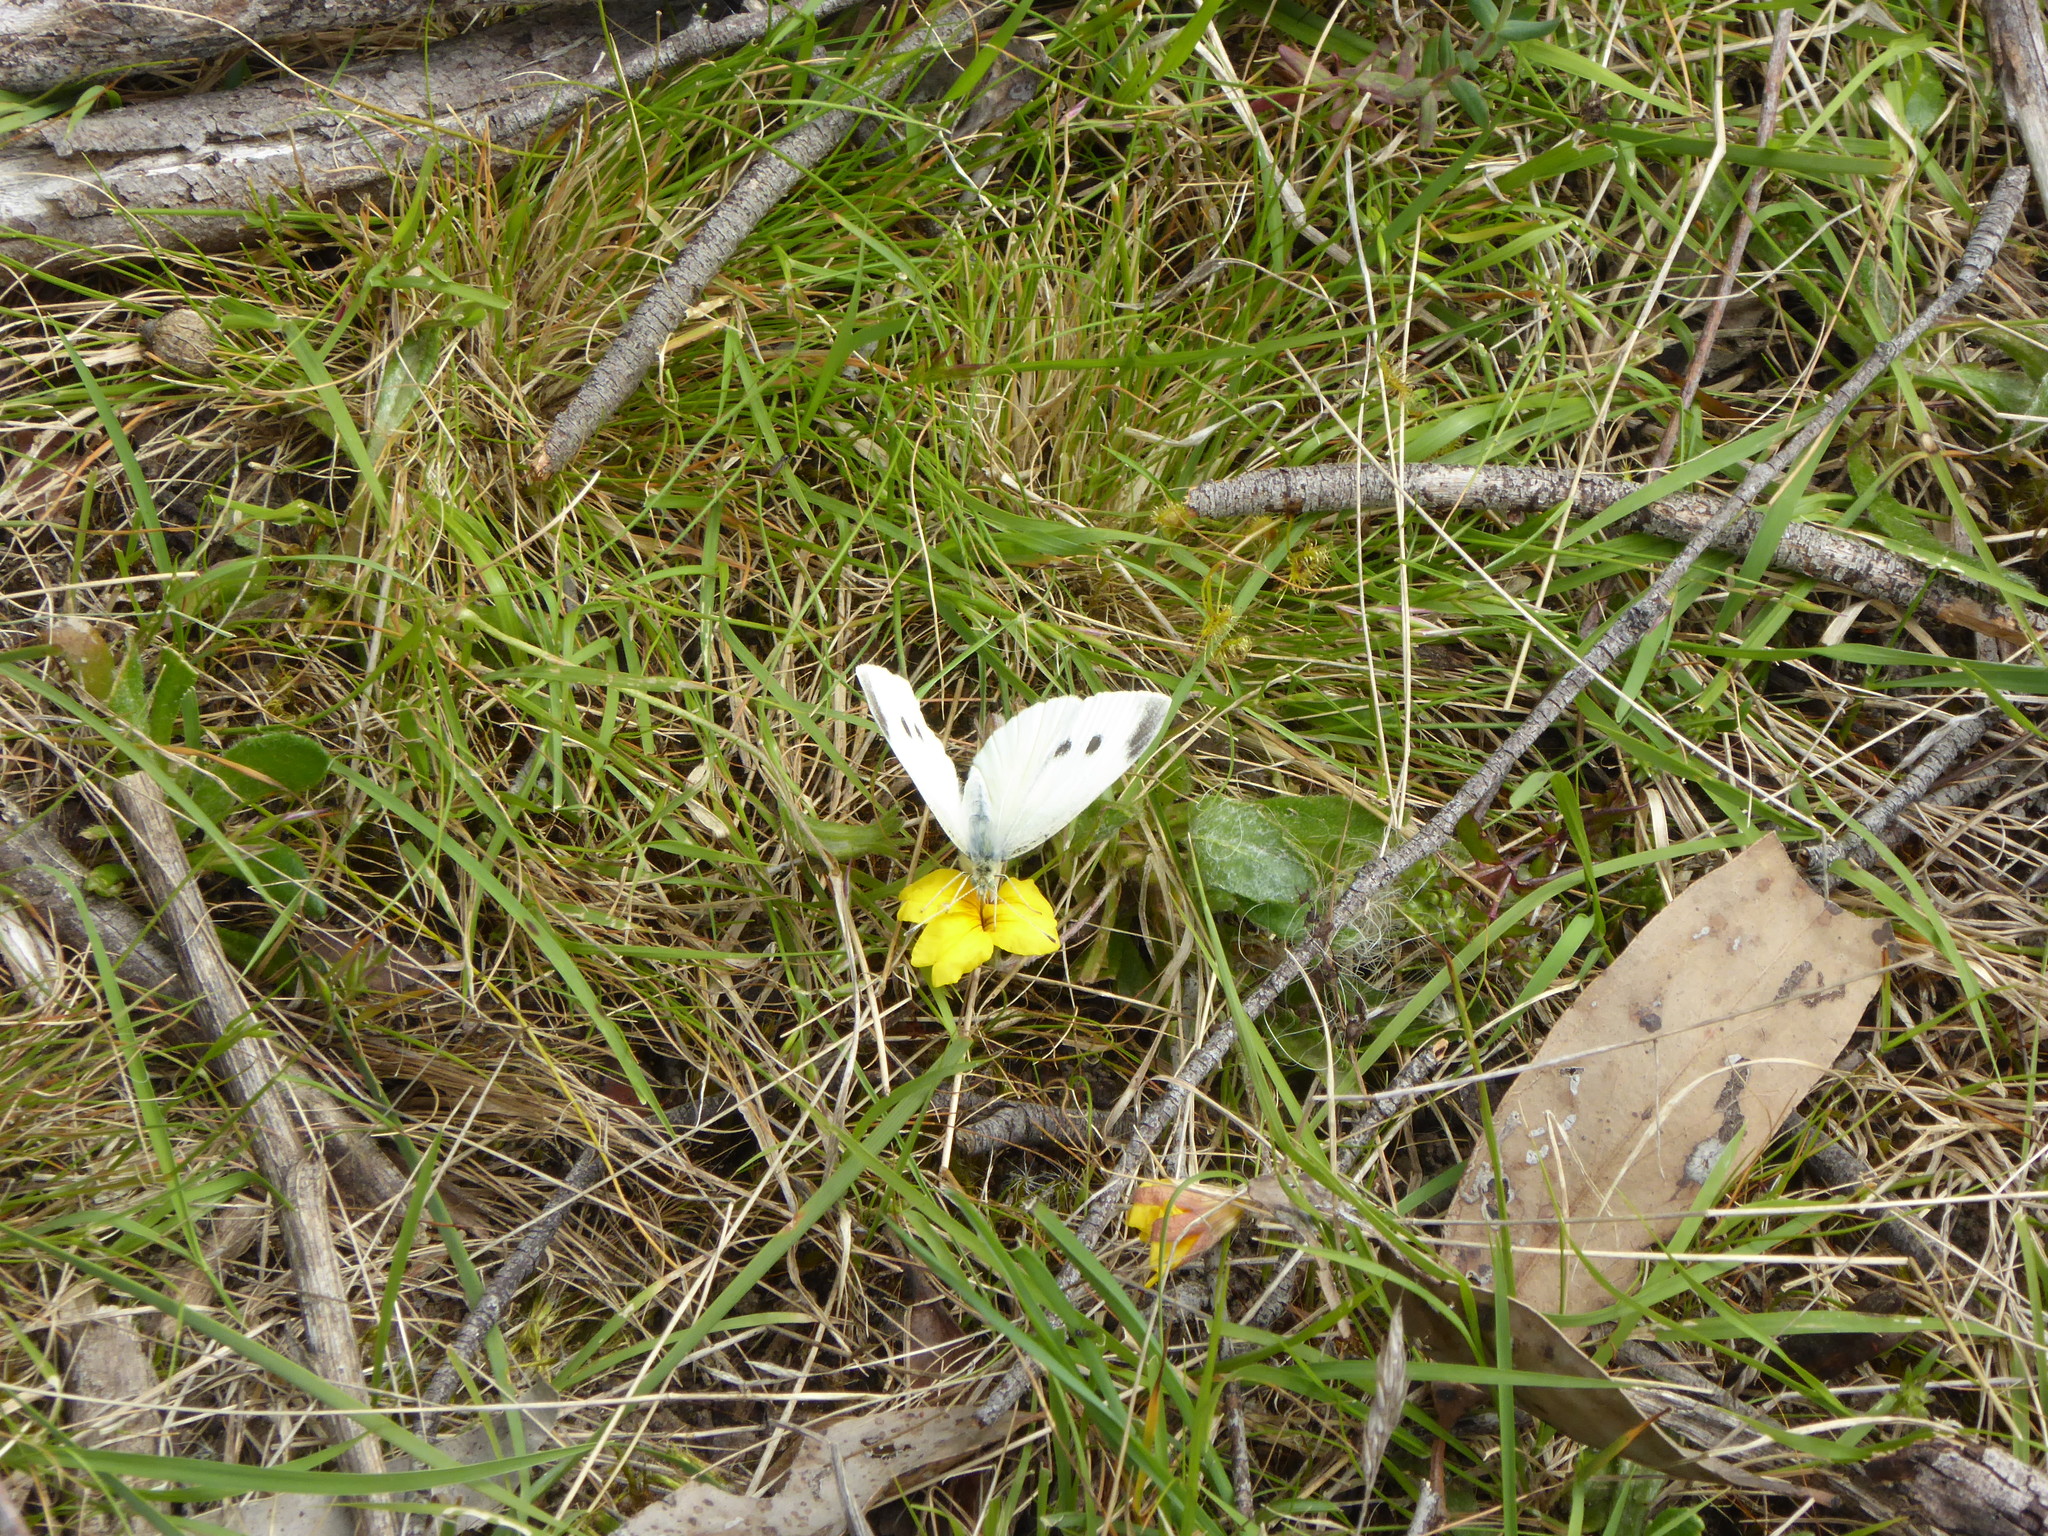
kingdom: Animalia
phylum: Arthropoda
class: Insecta
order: Lepidoptera
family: Pieridae
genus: Pieris
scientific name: Pieris rapae
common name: Small white
